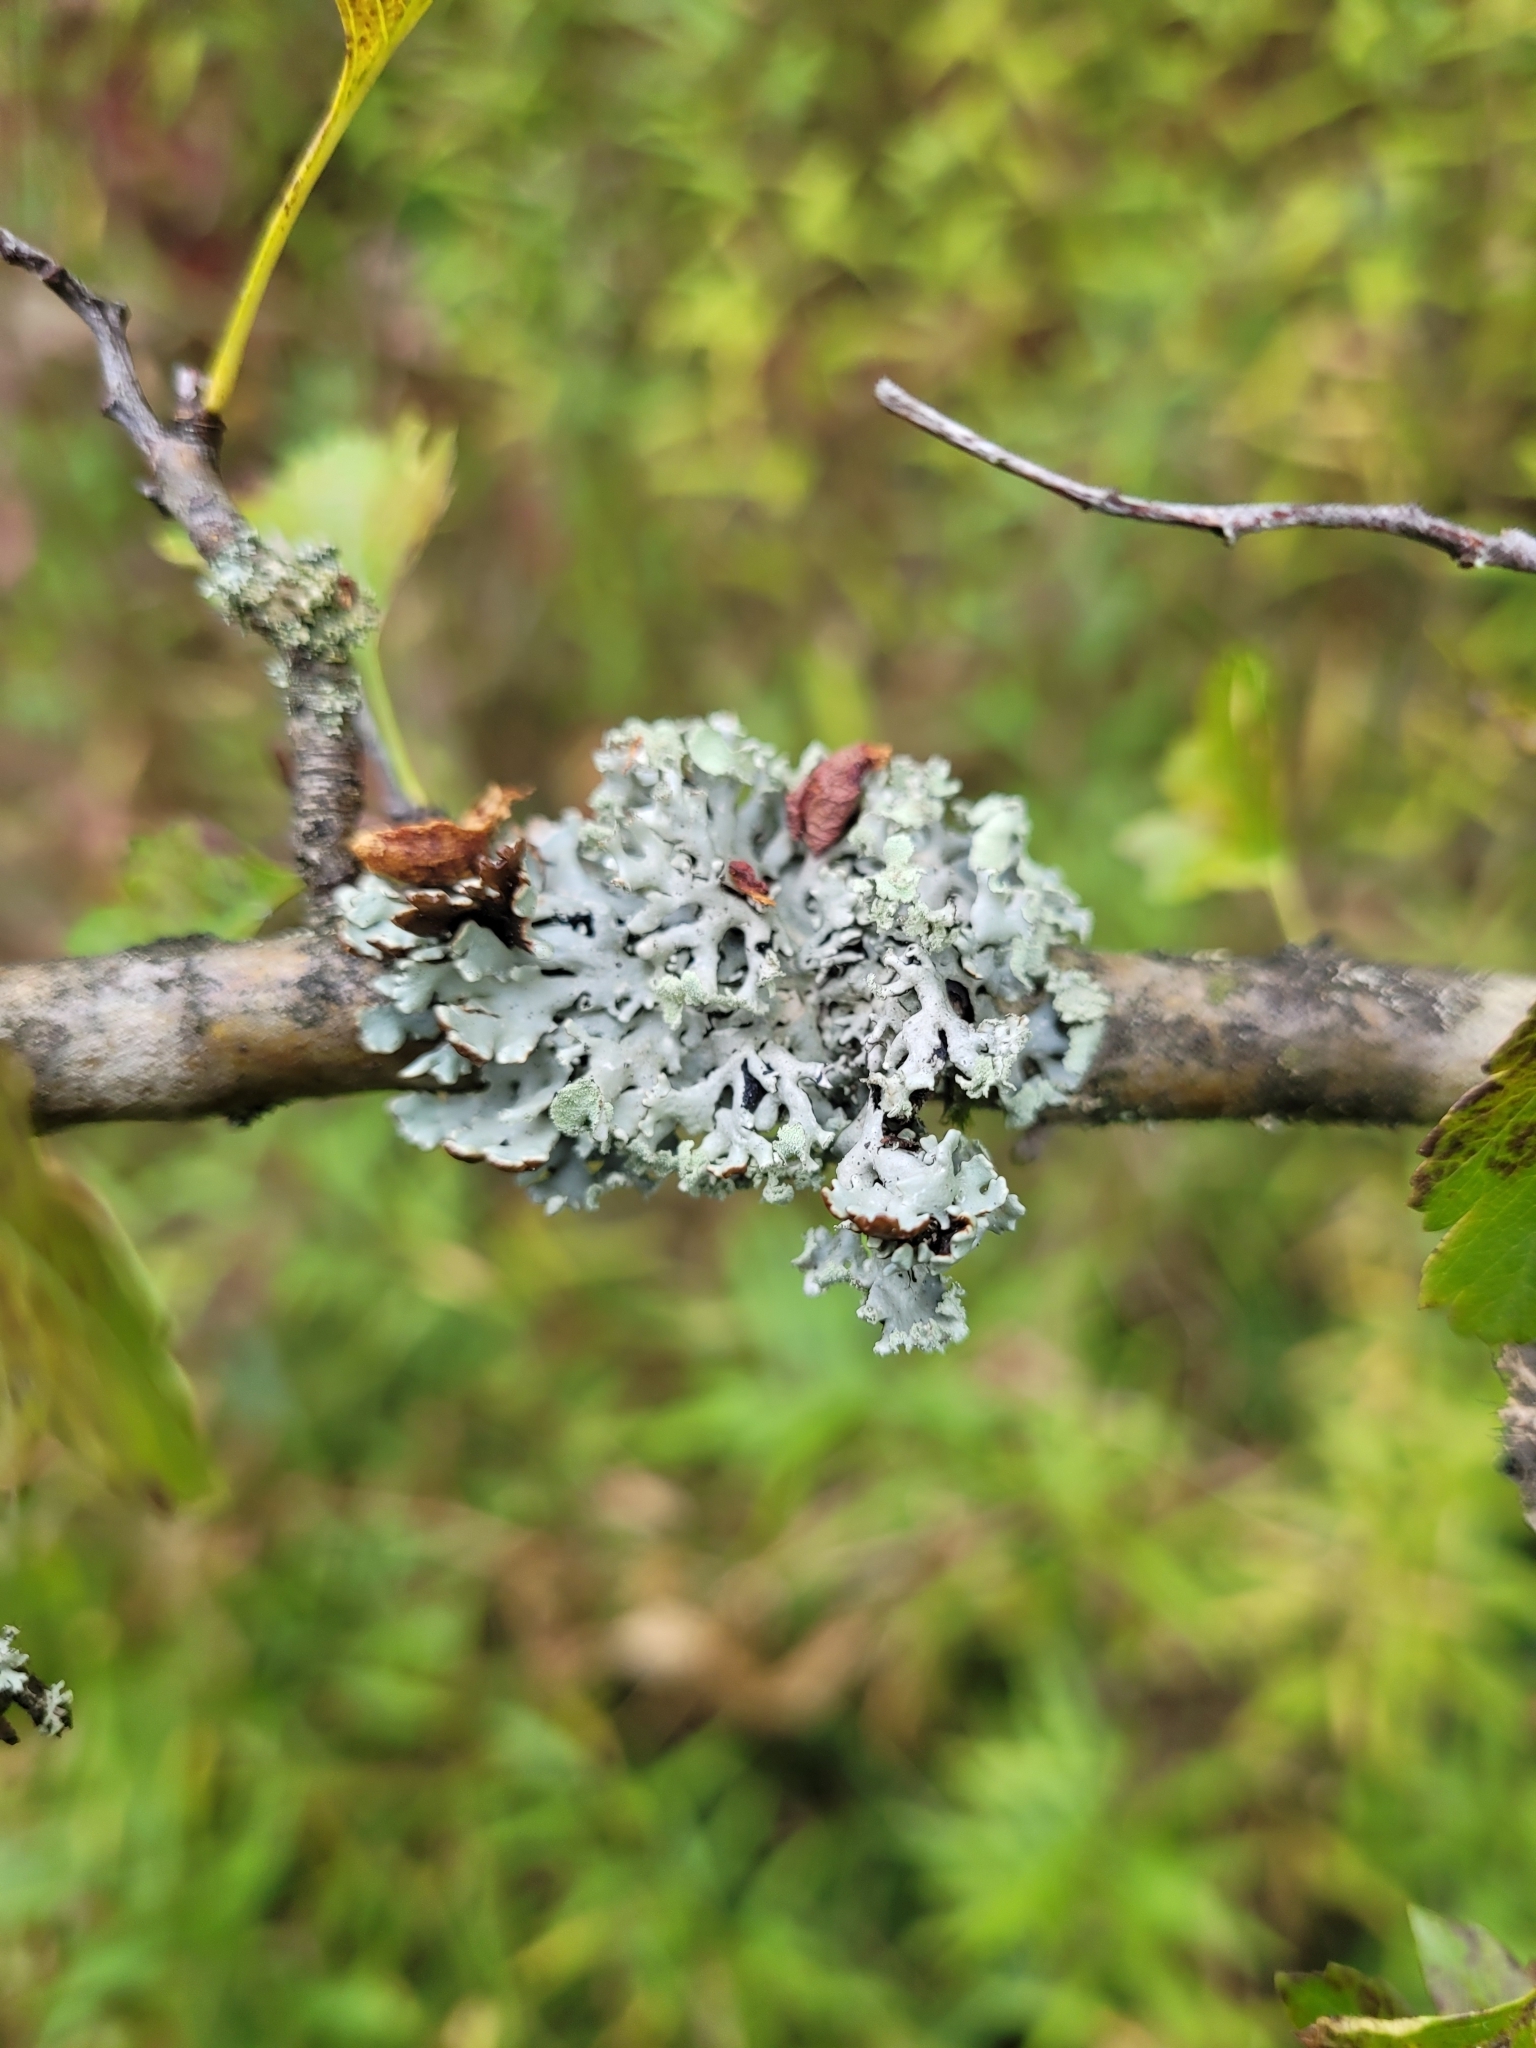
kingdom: Fungi
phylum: Ascomycota
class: Lecanoromycetes
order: Lecanorales
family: Parmeliaceae
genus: Hypogymnia
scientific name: Hypogymnia physodes
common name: Dark crottle
